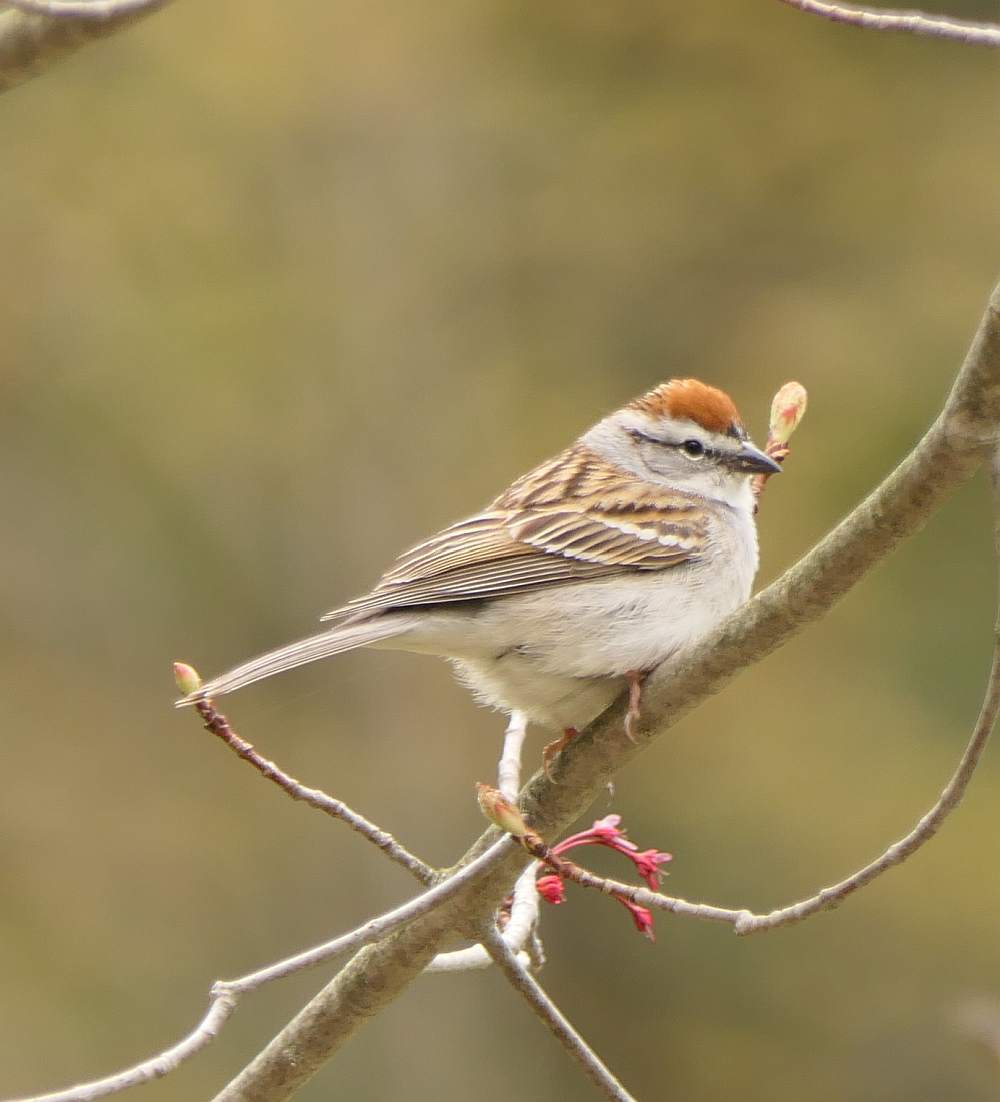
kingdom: Animalia
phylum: Chordata
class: Aves
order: Passeriformes
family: Passerellidae
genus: Spizella
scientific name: Spizella passerina
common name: Chipping sparrow
